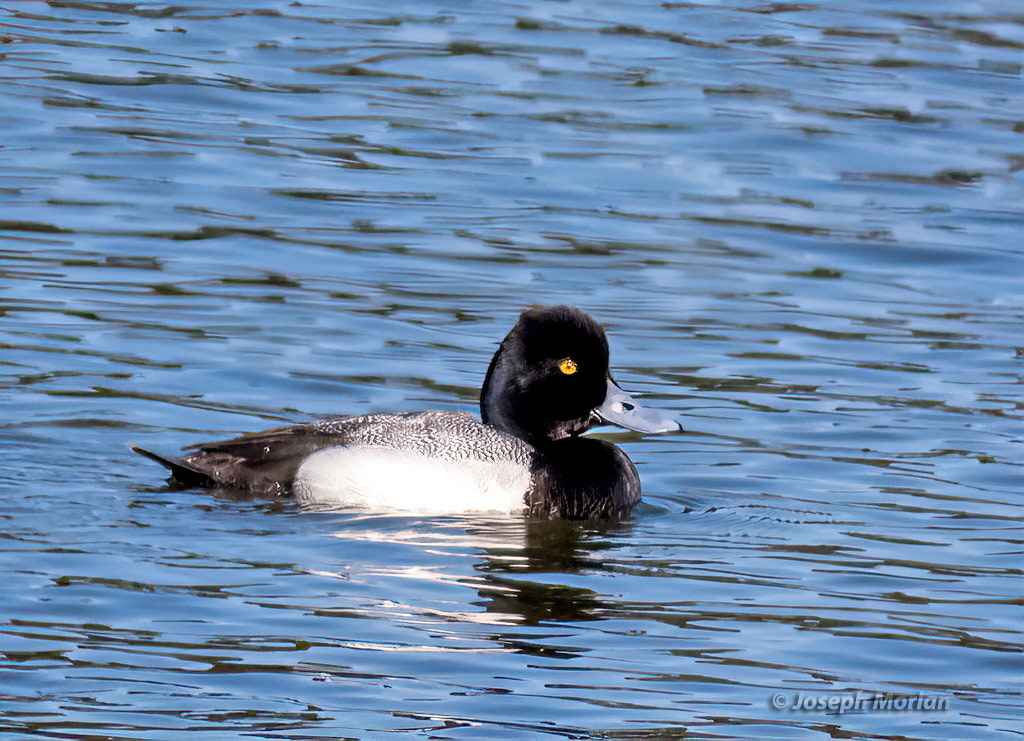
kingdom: Animalia
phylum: Chordata
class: Aves
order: Anseriformes
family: Anatidae
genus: Aythya
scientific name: Aythya affinis
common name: Lesser scaup
